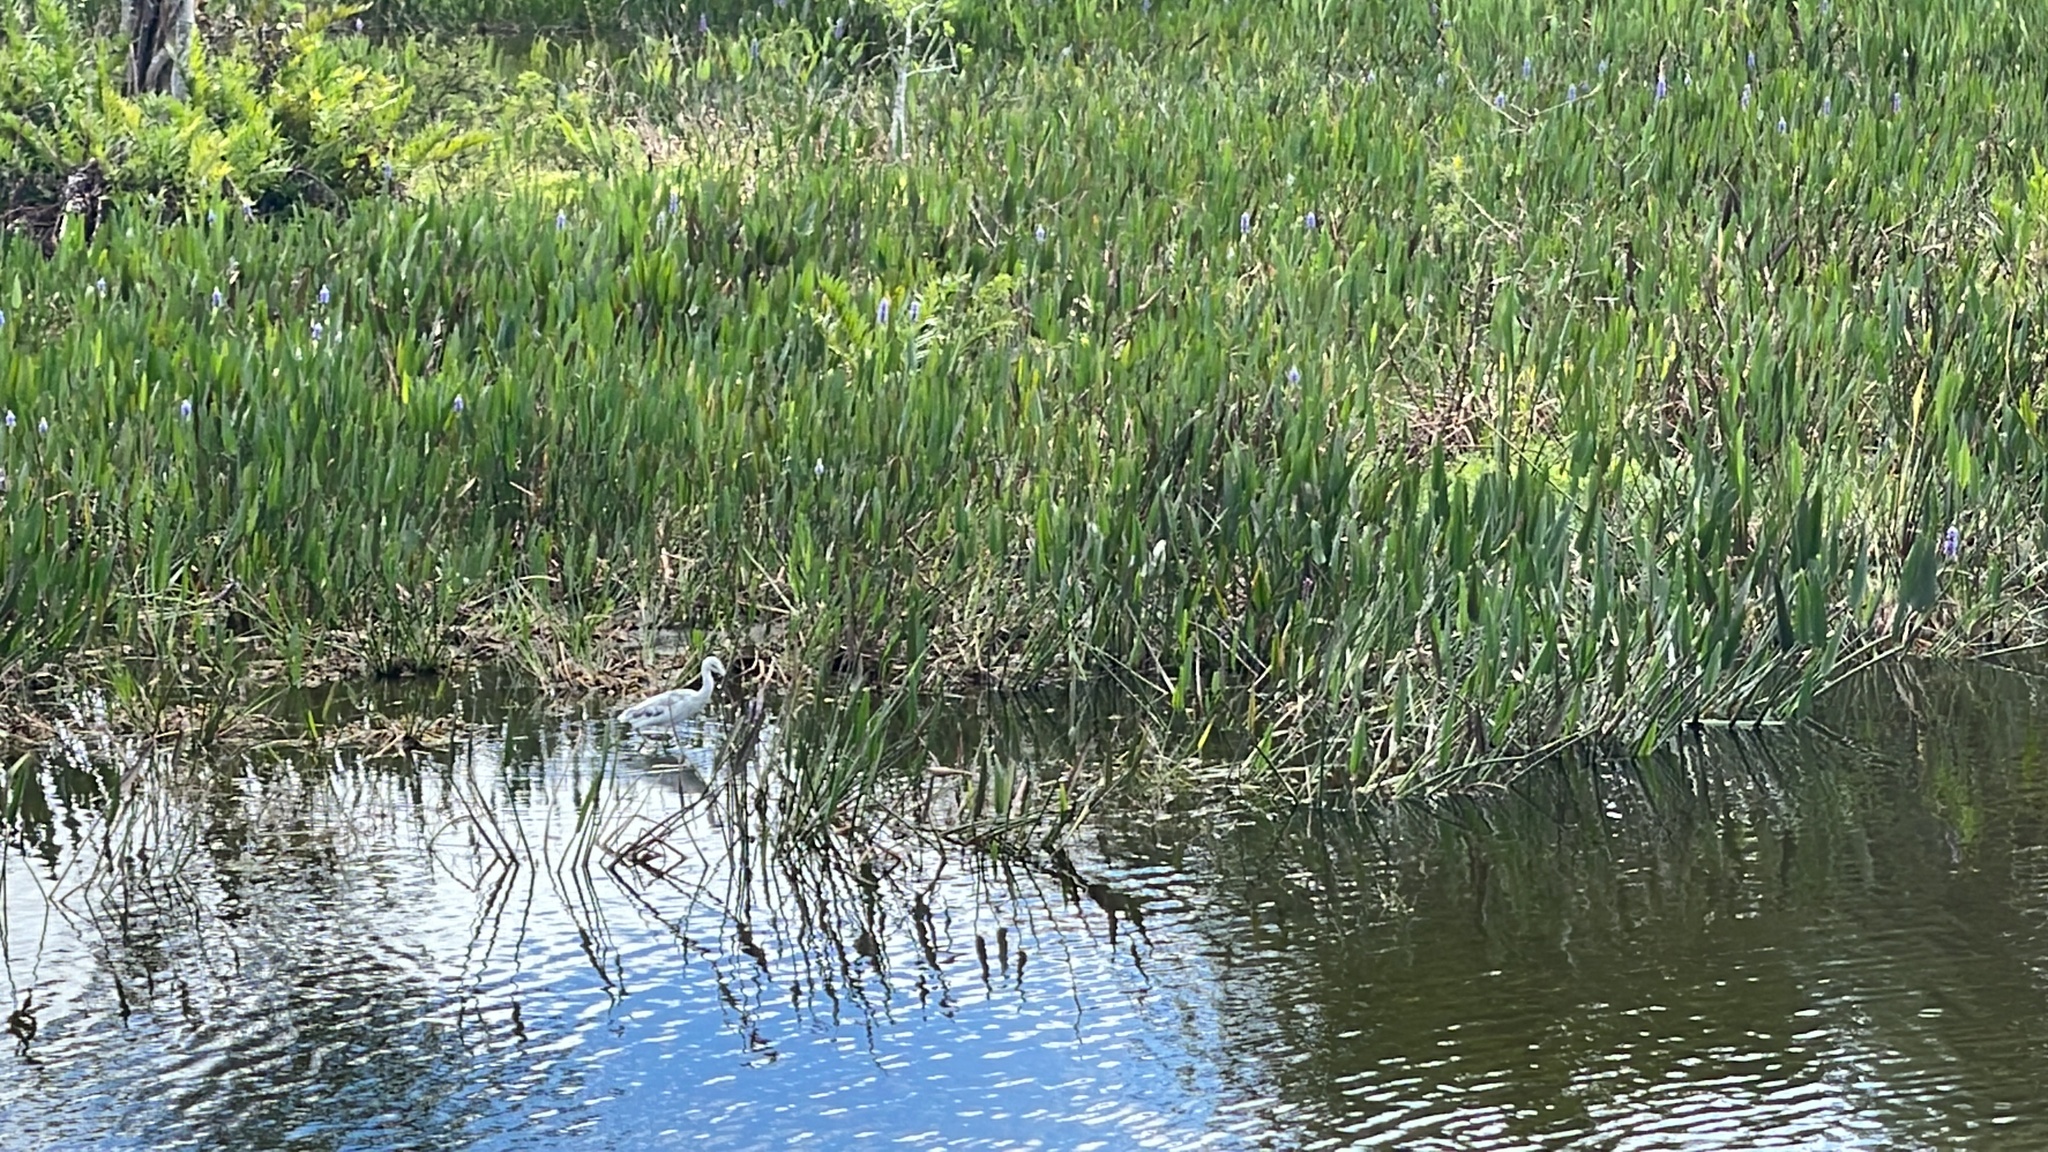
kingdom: Animalia
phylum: Chordata
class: Aves
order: Pelecaniformes
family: Ardeidae
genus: Egretta
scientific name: Egretta caerulea
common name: Little blue heron
